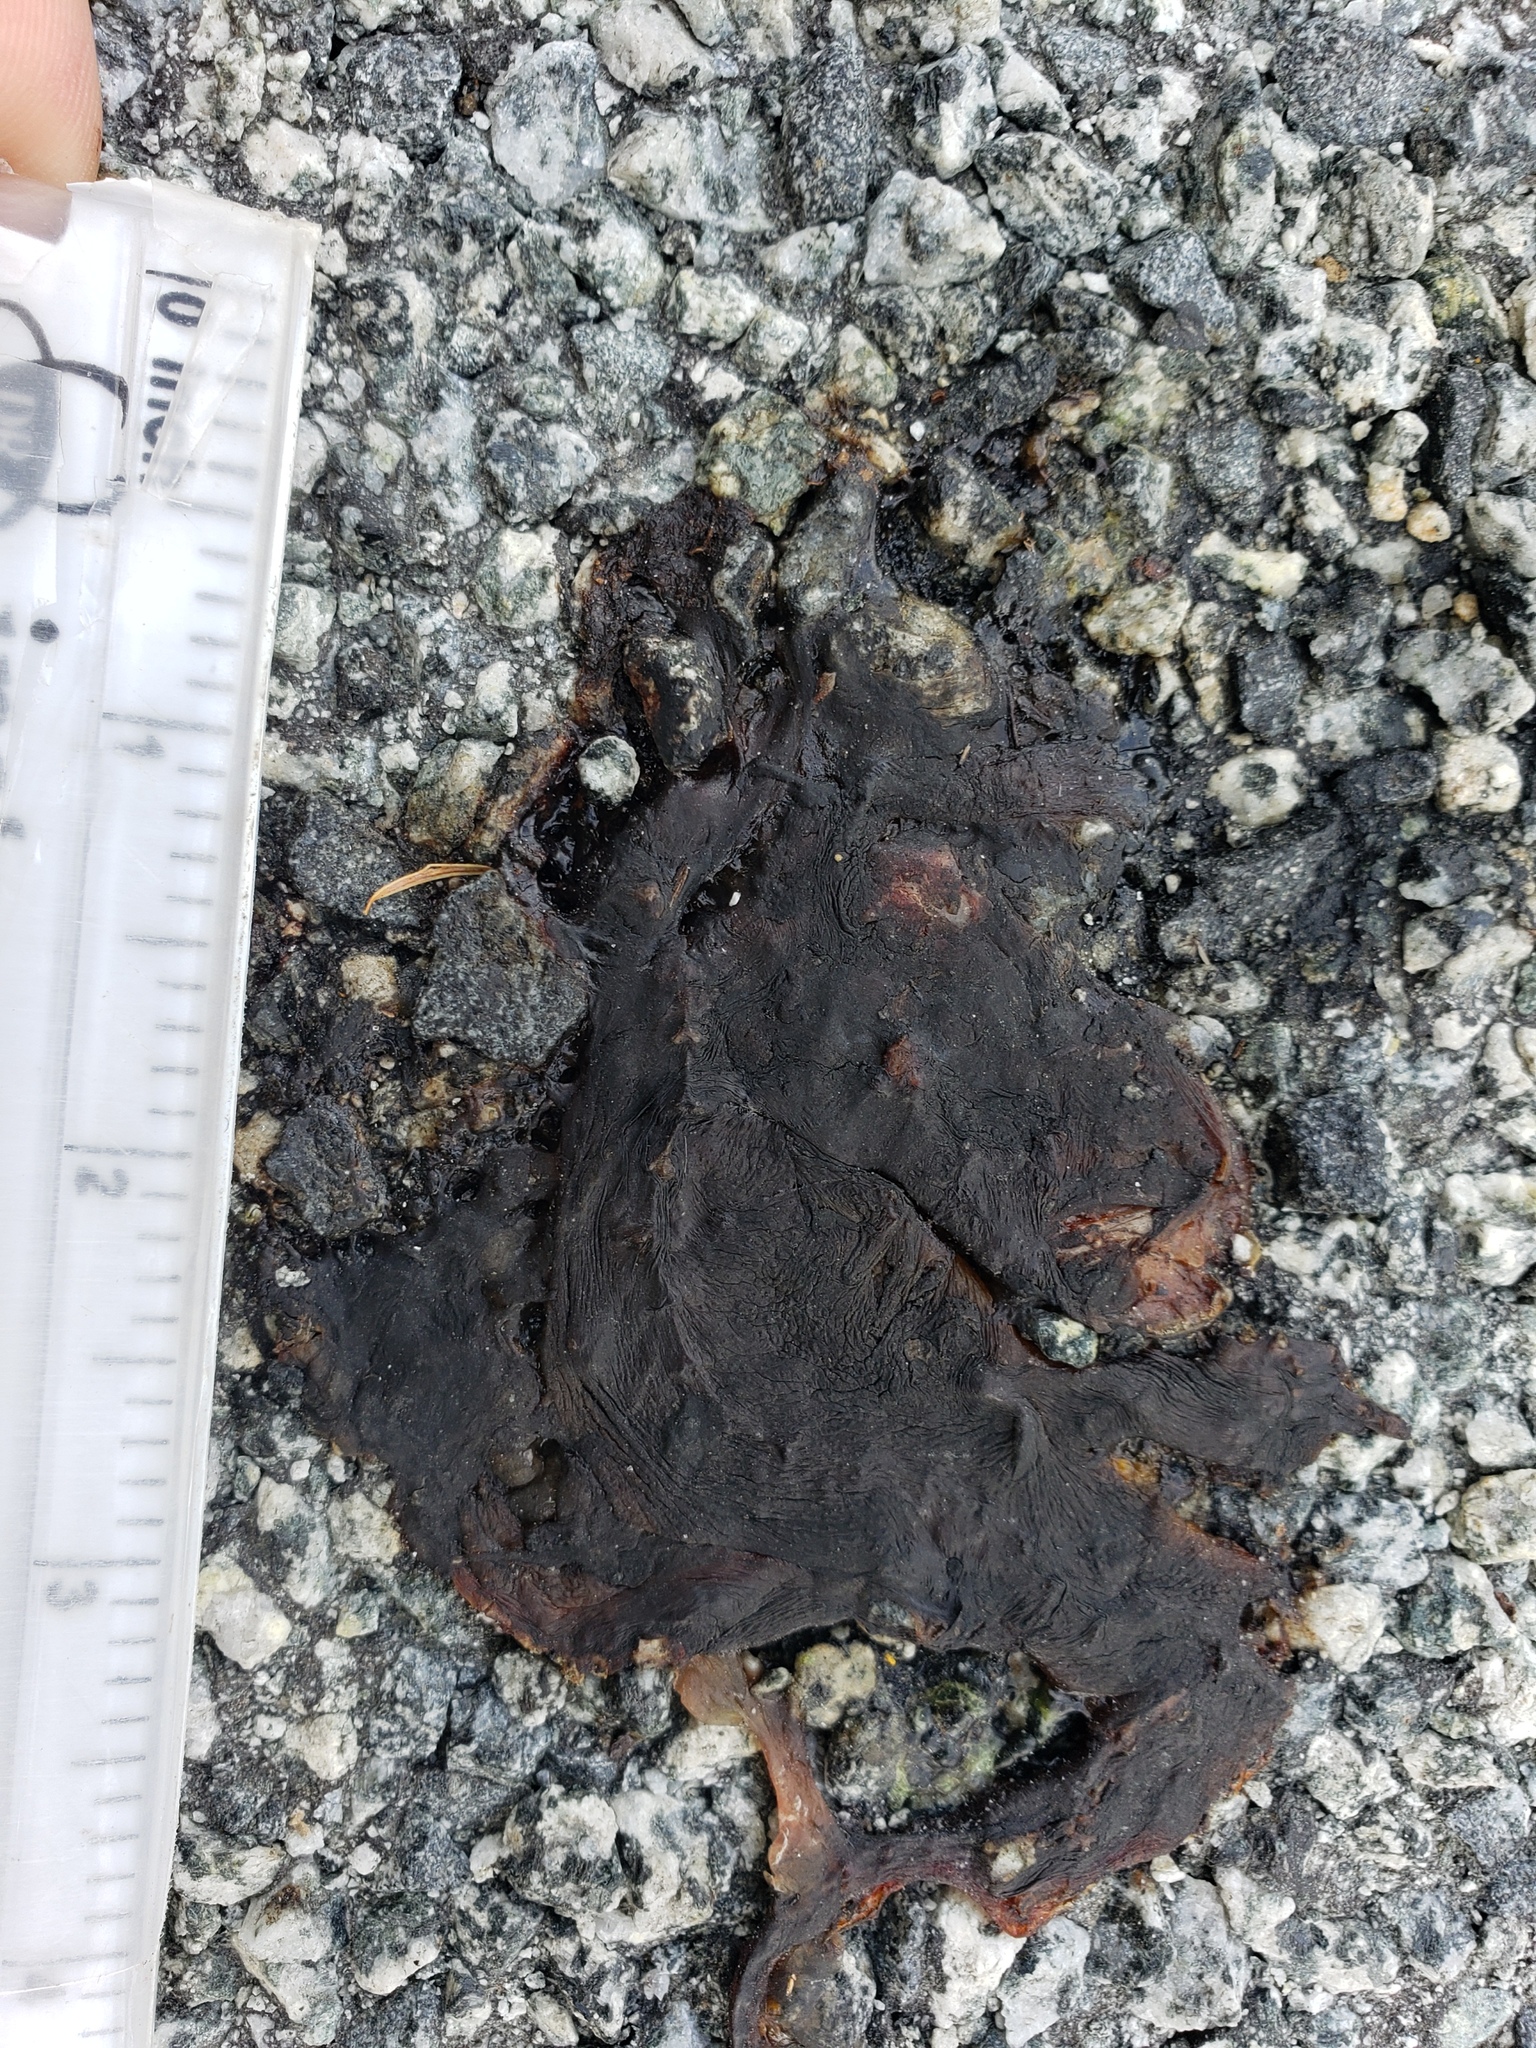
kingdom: Animalia
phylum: Chordata
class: Amphibia
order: Caudata
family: Salamandridae
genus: Taricha
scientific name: Taricha
